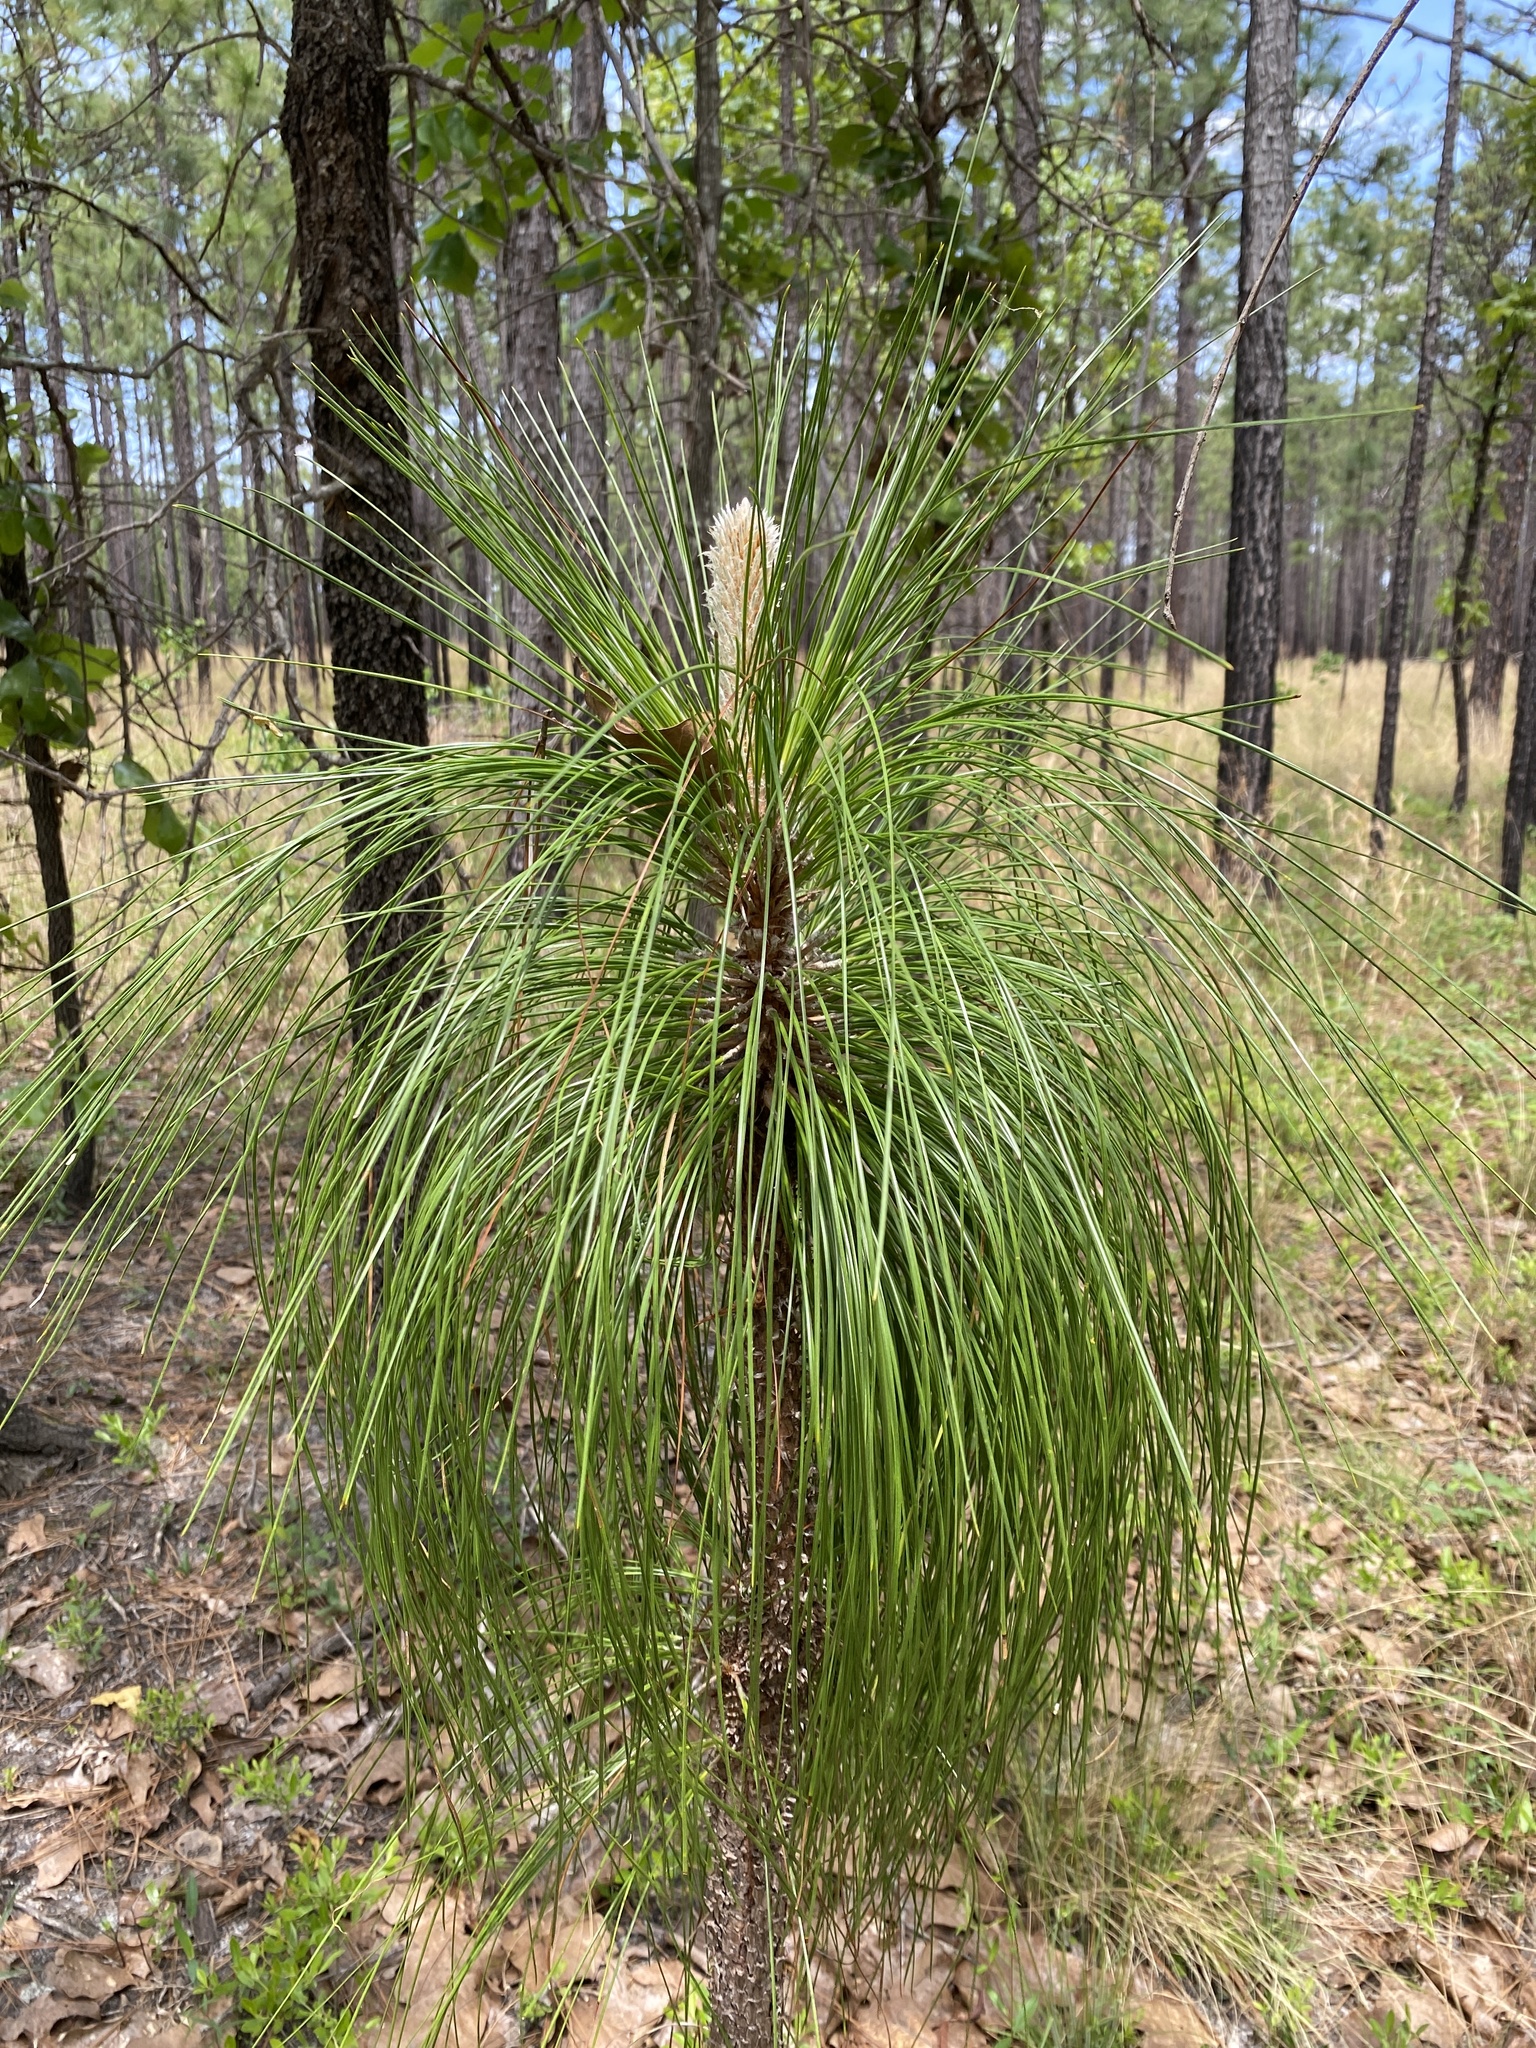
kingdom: Plantae
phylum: Tracheophyta
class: Pinopsida
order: Pinales
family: Pinaceae
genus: Pinus
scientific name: Pinus palustris
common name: Longleaf pine
